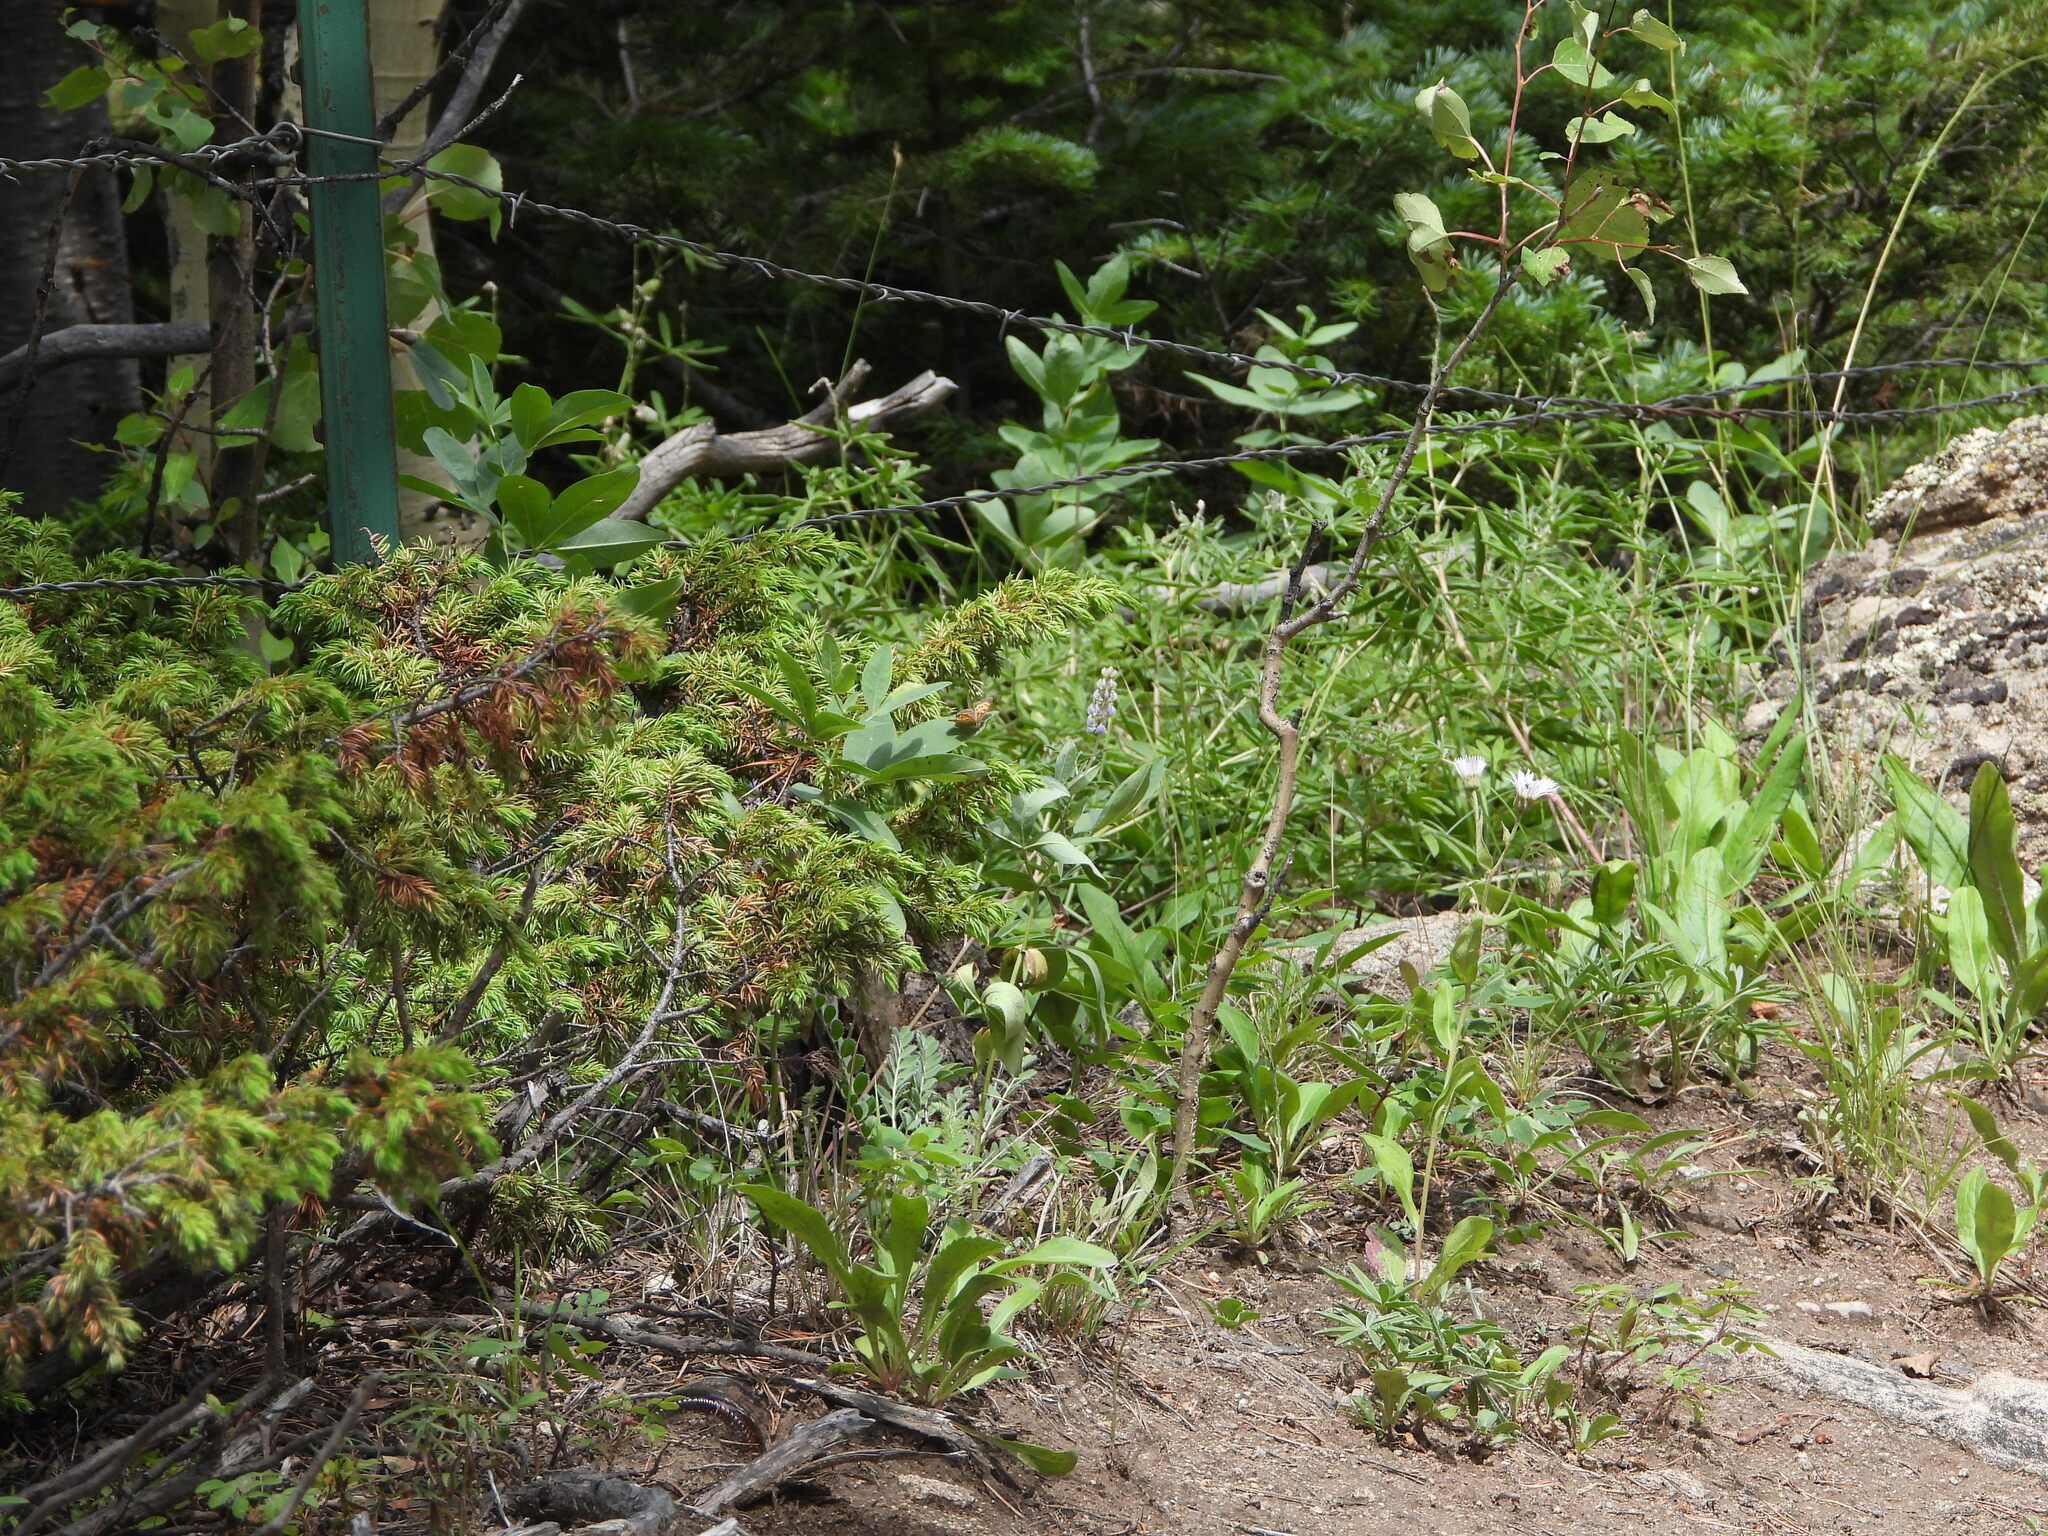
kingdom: Plantae
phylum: Tracheophyta
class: Pinopsida
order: Pinales
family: Cupressaceae
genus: Juniperus
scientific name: Juniperus communis
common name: Common juniper
